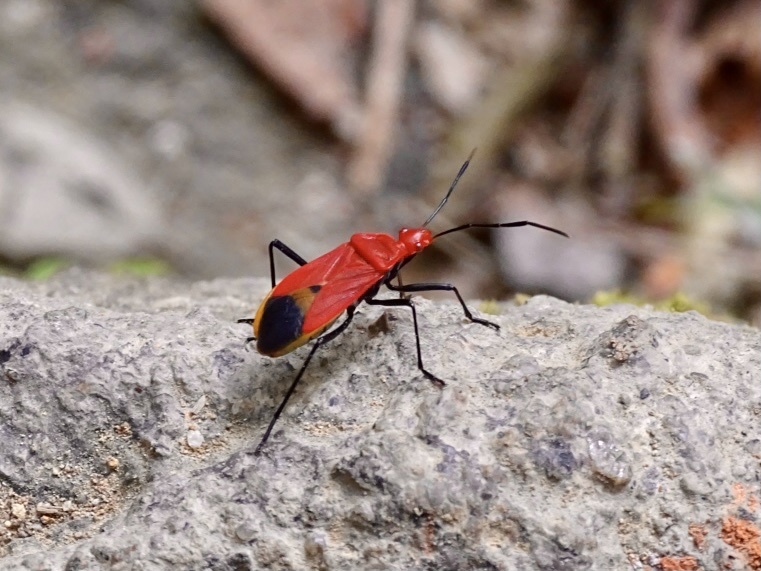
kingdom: Animalia
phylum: Arthropoda
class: Insecta
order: Hemiptera
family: Pyrrhocoridae
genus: Dindymus
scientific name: Dindymus
